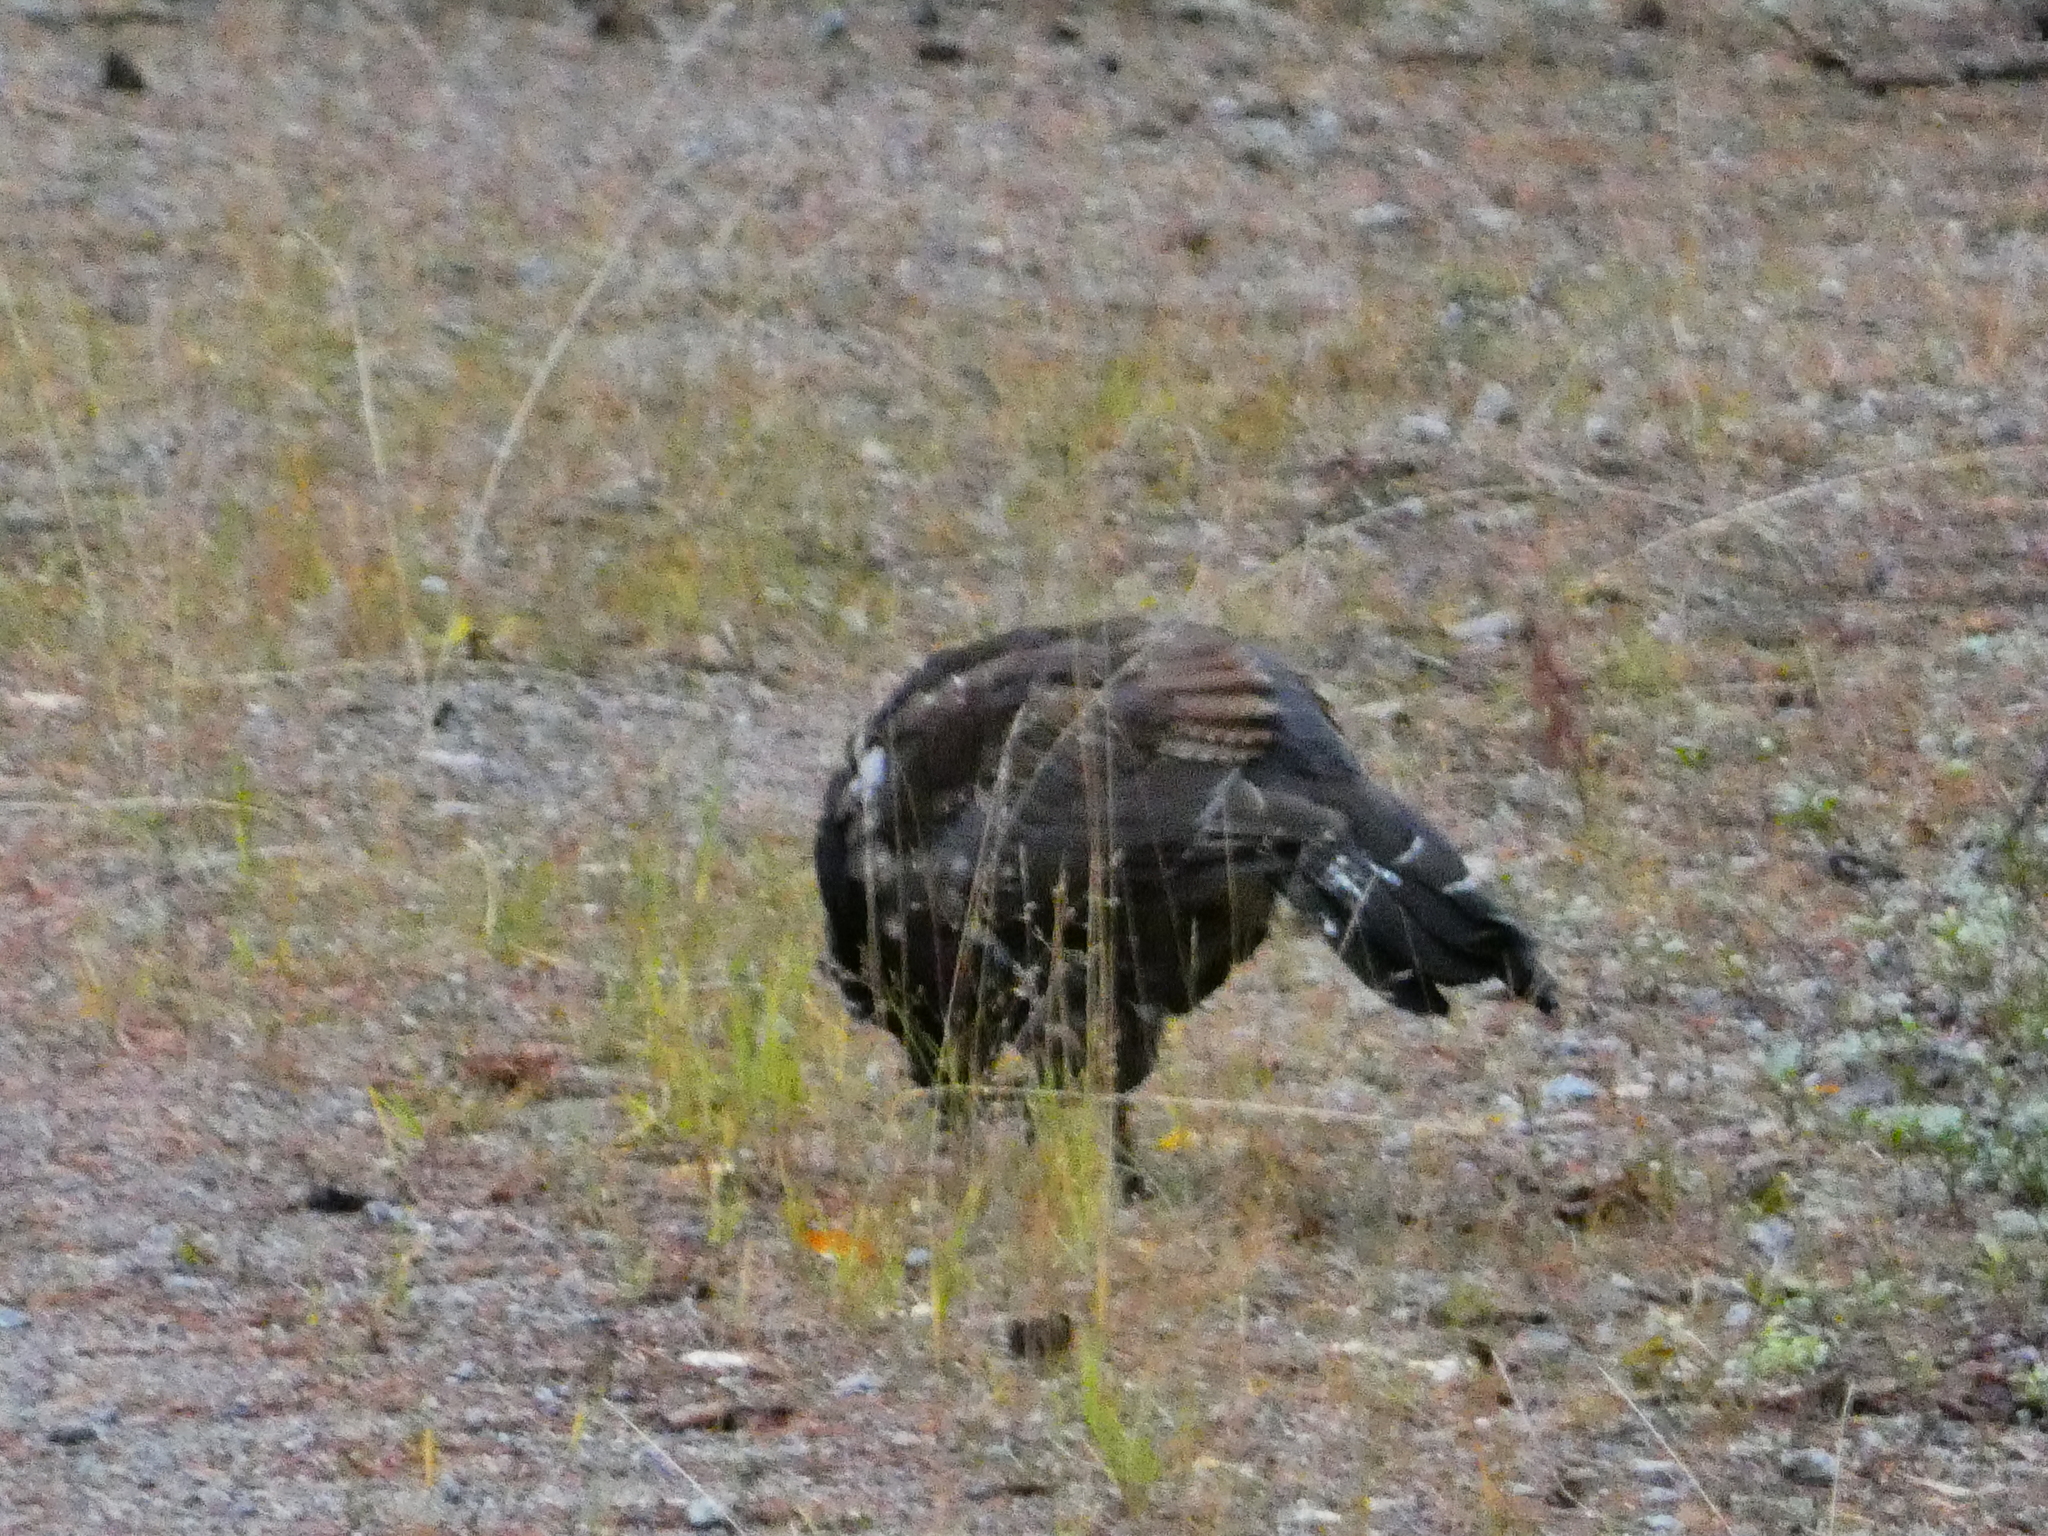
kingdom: Animalia
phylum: Chordata
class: Aves
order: Galliformes
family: Phasianidae
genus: Tetrao
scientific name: Tetrao urogallus
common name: Western capercaillie
